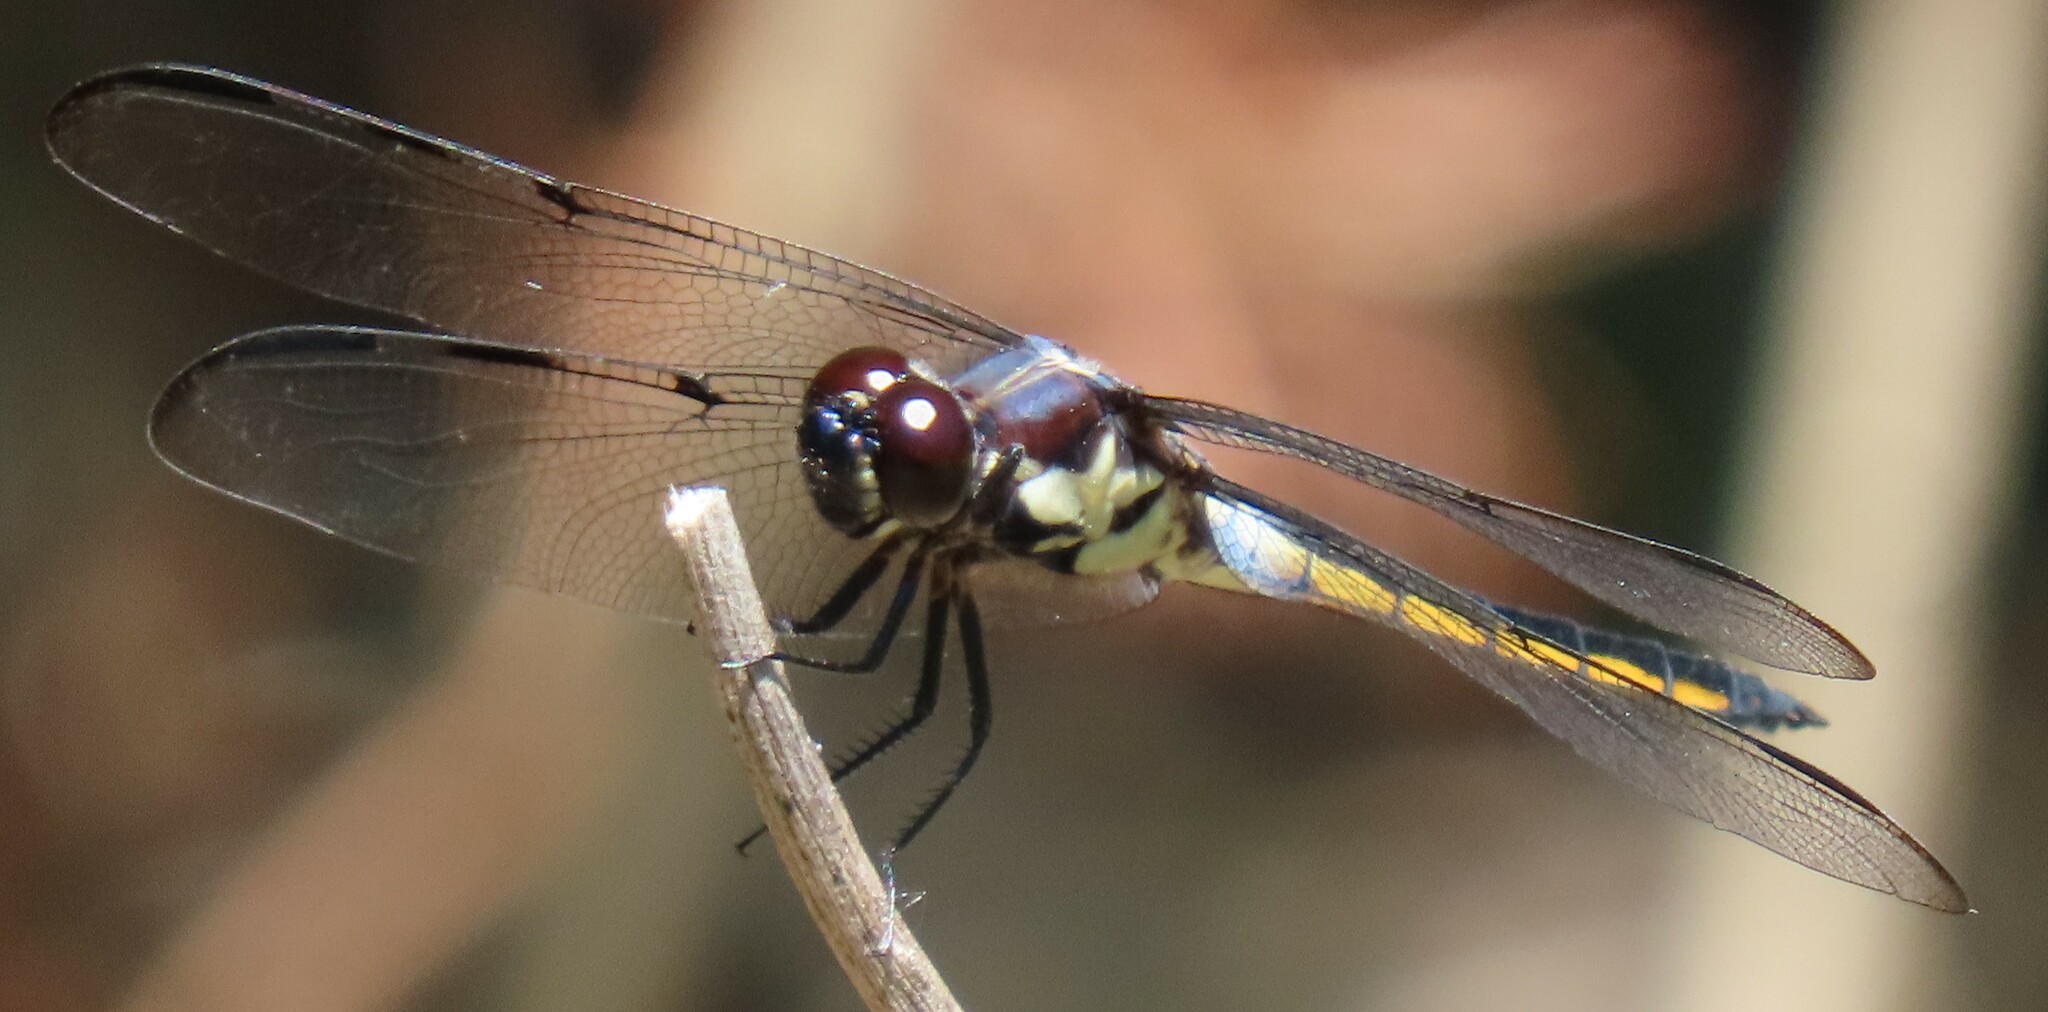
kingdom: Animalia
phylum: Arthropoda
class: Insecta
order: Odonata
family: Libellulidae
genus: Libellula
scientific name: Libellula axilena
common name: Bar-winged skimmer
